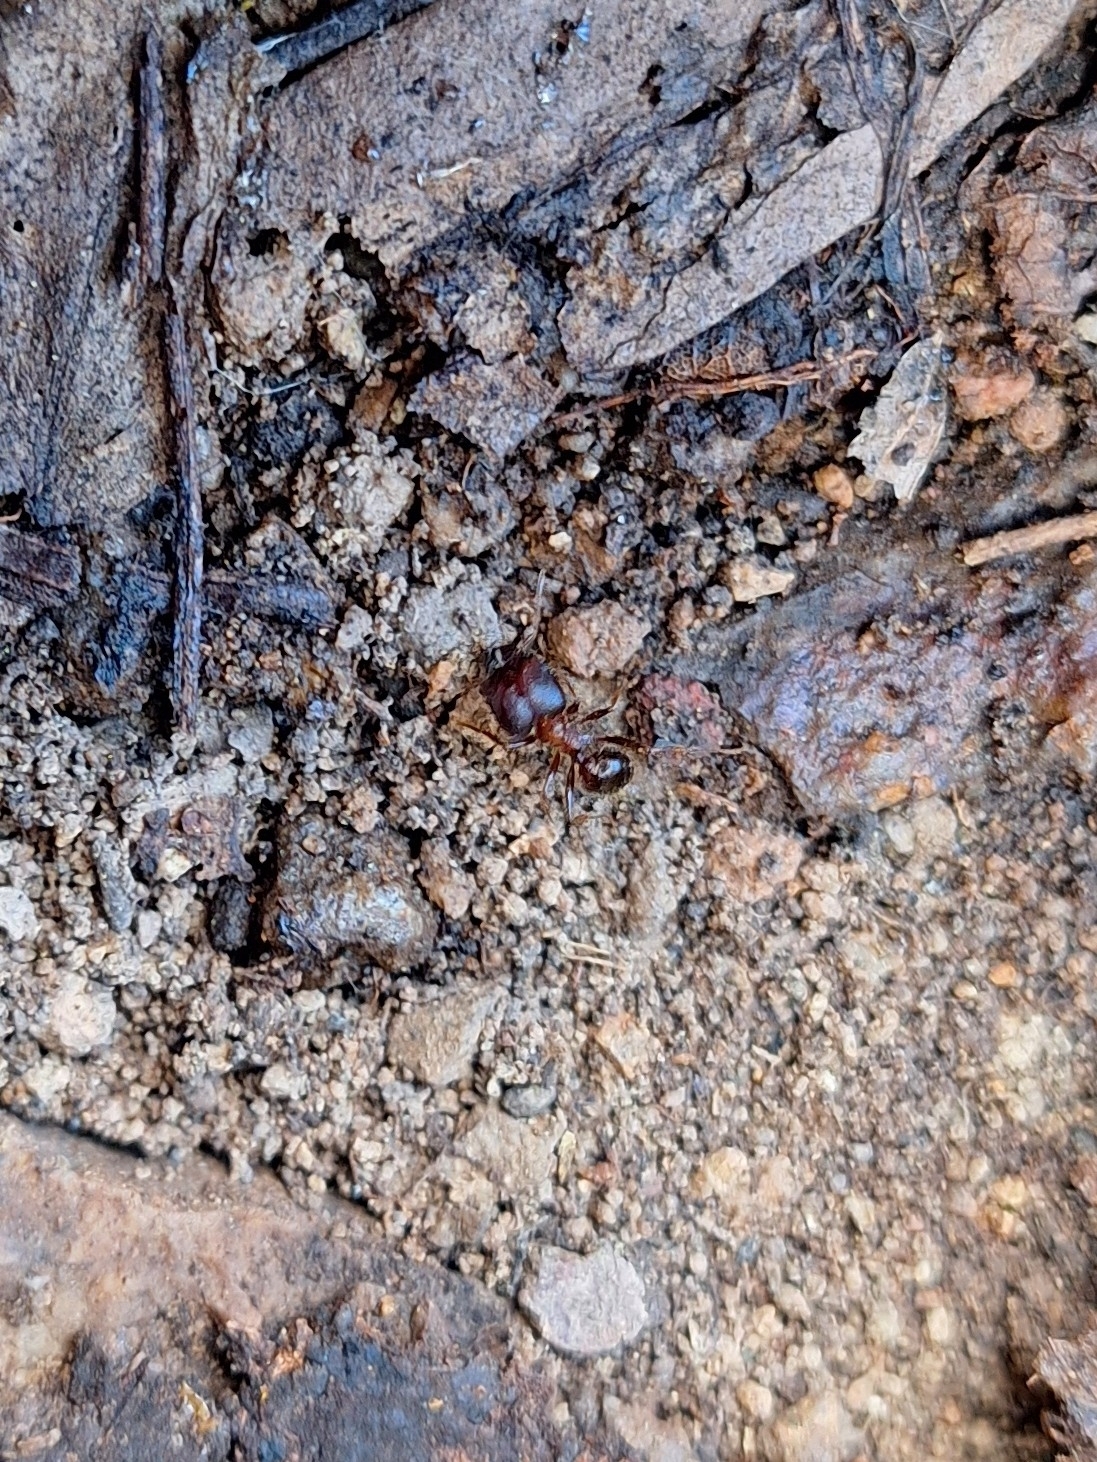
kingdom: Animalia
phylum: Arthropoda
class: Insecta
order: Hymenoptera
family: Formicidae
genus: Pheidole
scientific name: Pheidole obtusospinosa
